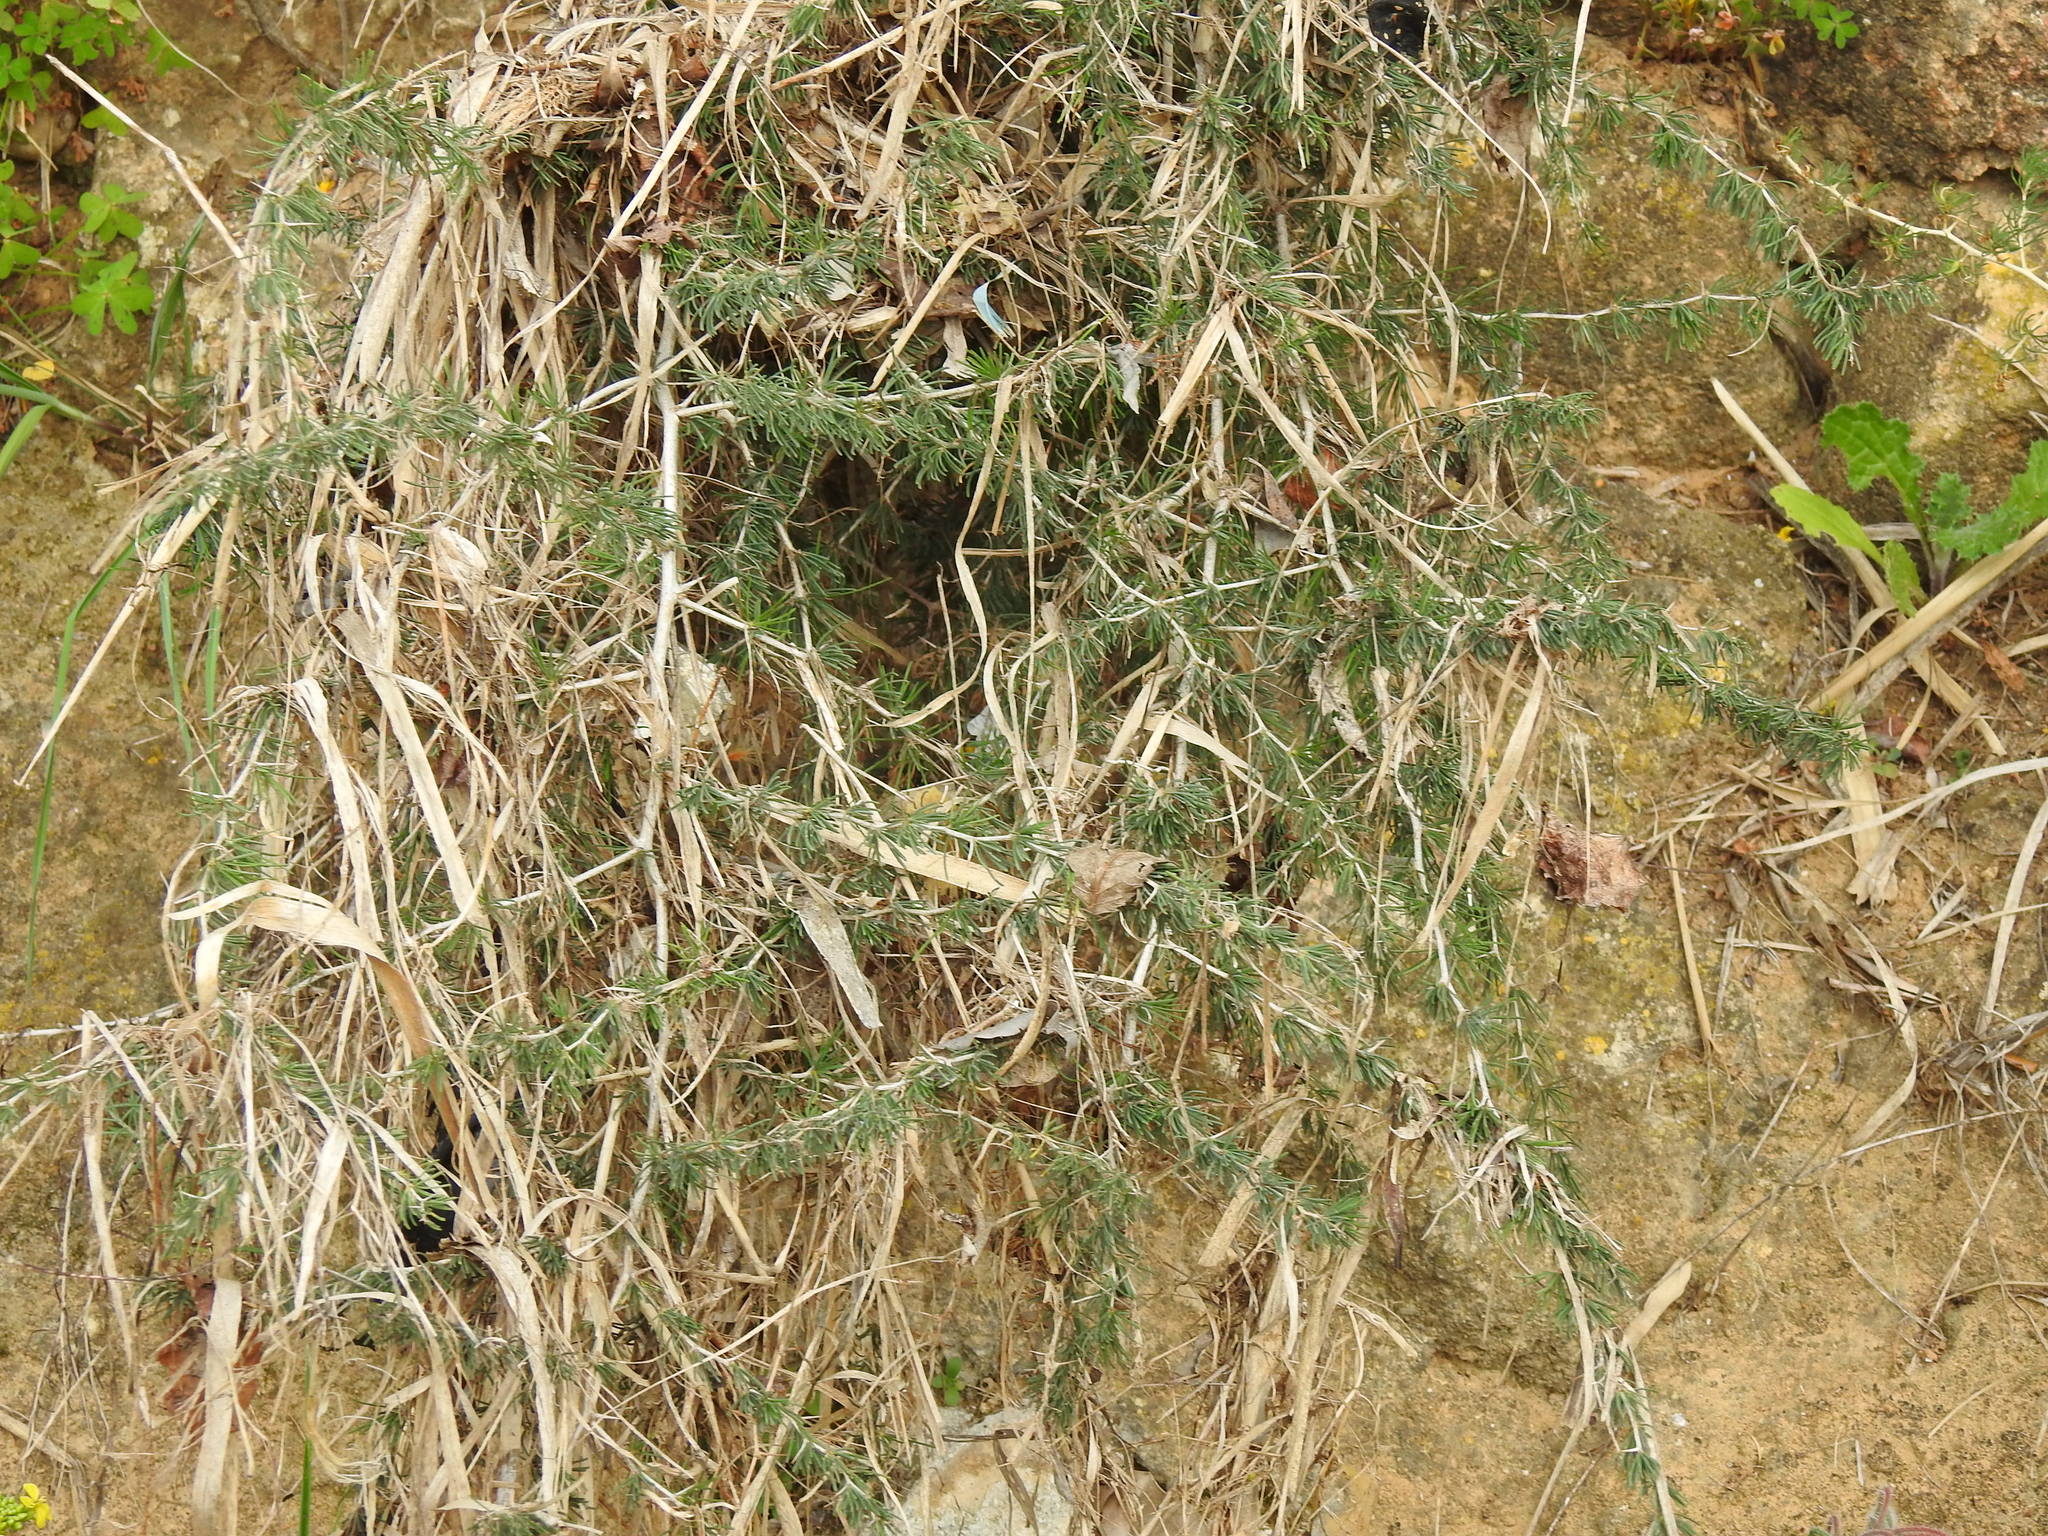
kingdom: Plantae
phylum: Tracheophyta
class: Liliopsida
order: Asparagales
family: Asparagaceae
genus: Asparagus
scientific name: Asparagus albus
